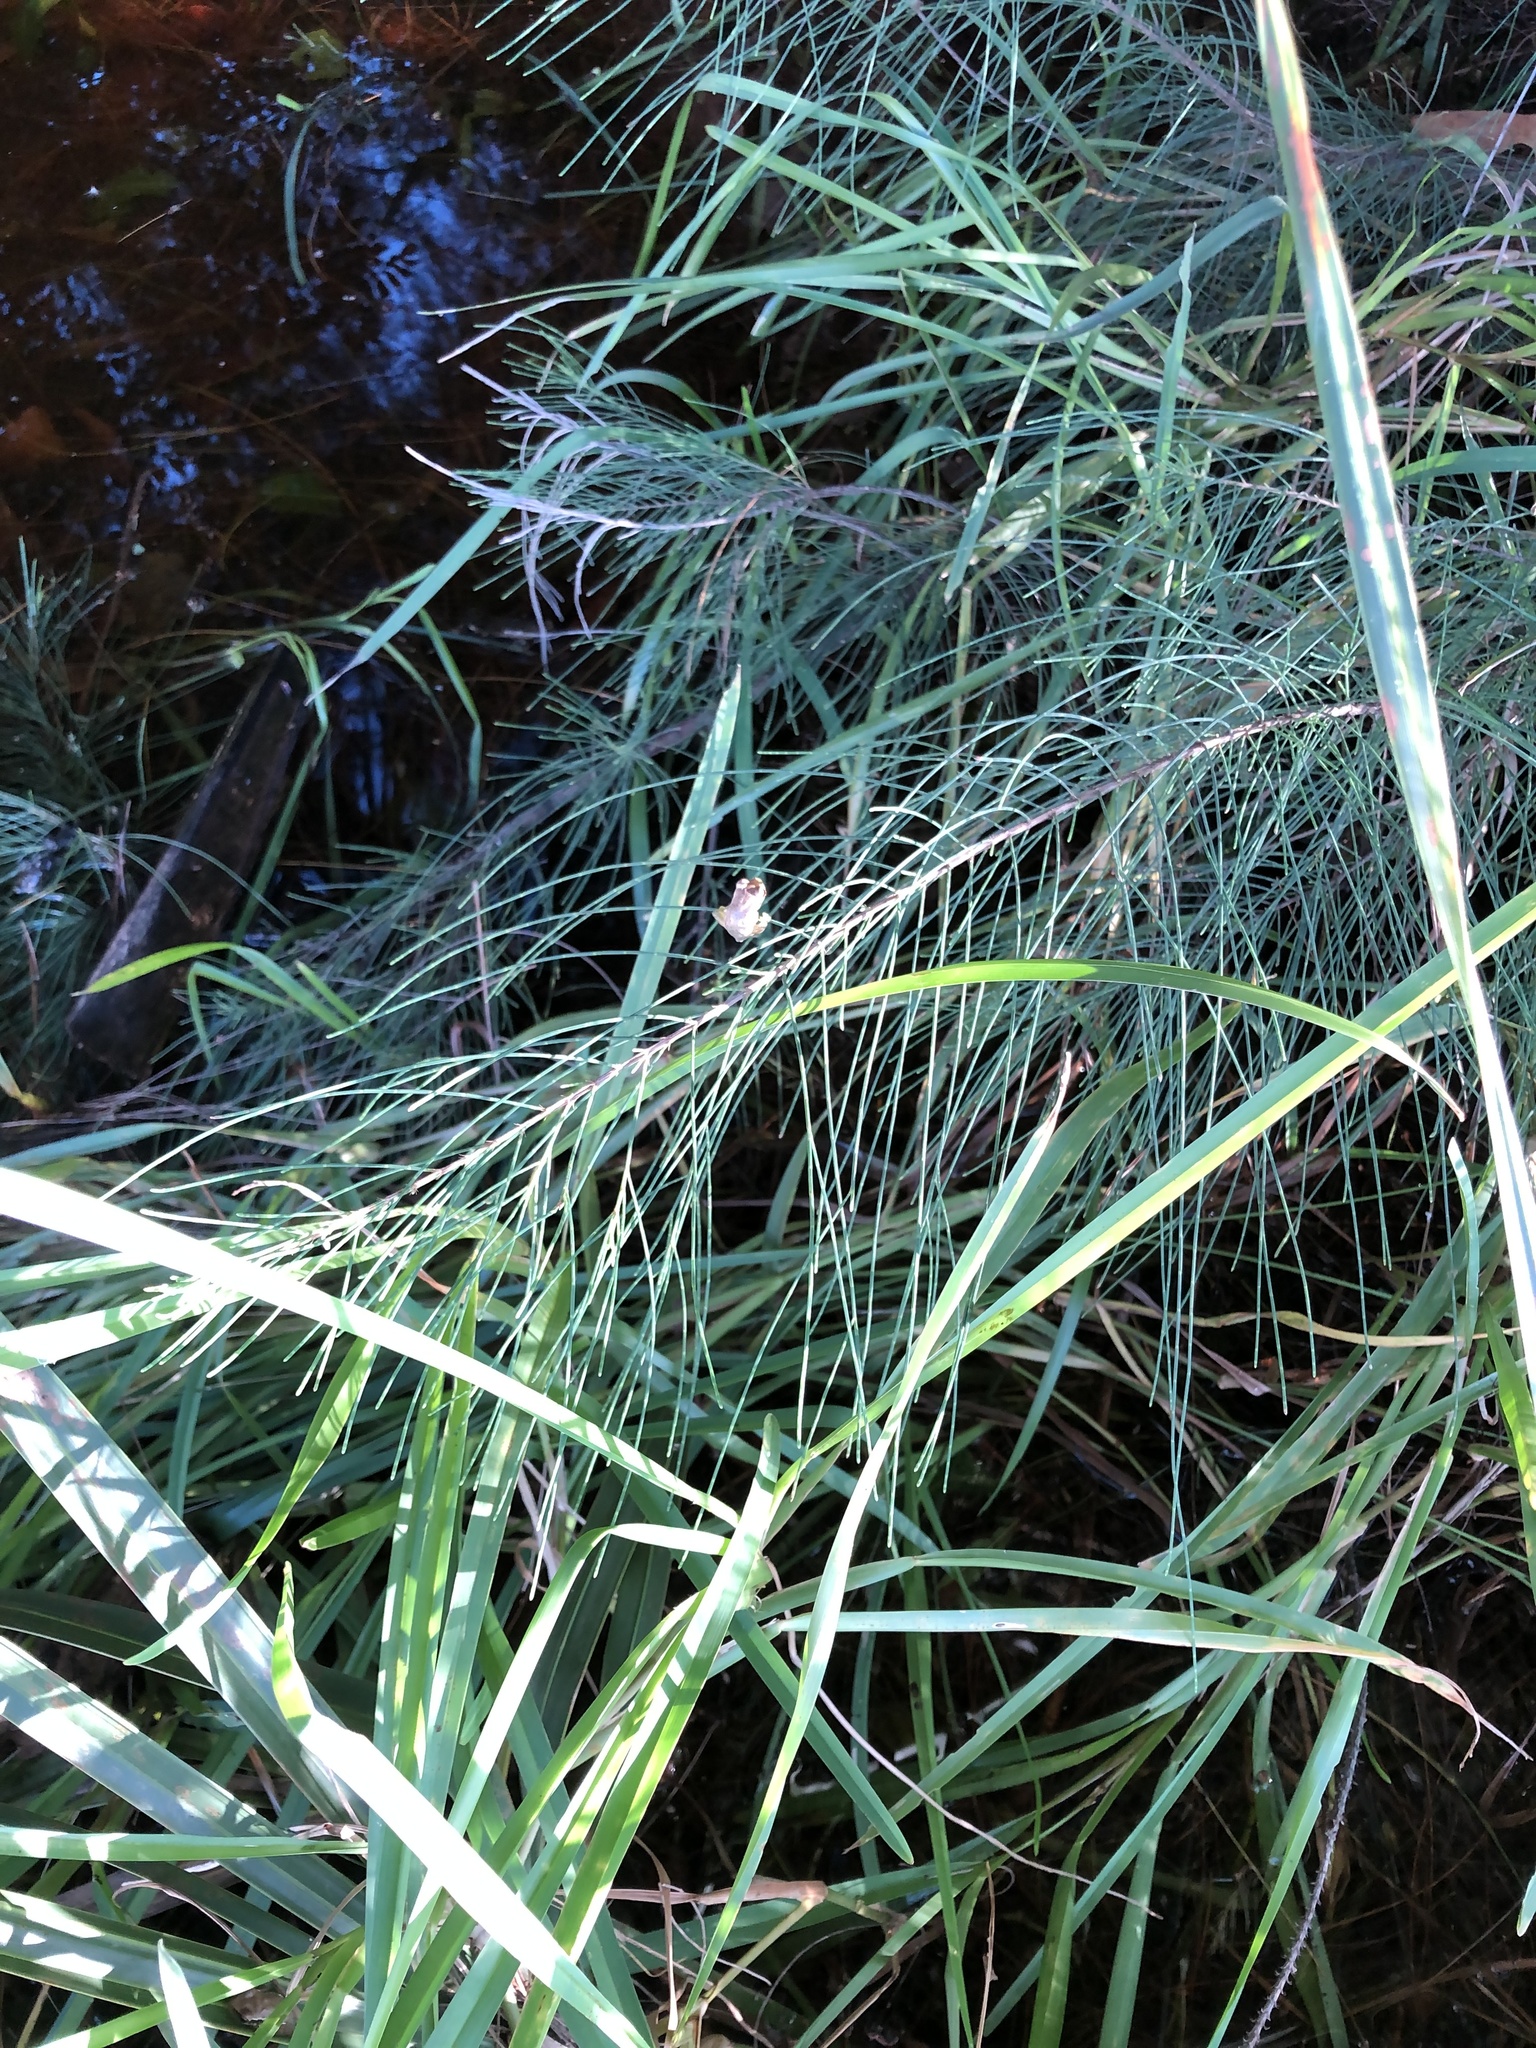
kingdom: Animalia
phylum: Chordata
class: Amphibia
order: Anura
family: Hylidae
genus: Osteopilus
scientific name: Osteopilus septentrionalis
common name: Cuban treefrog
